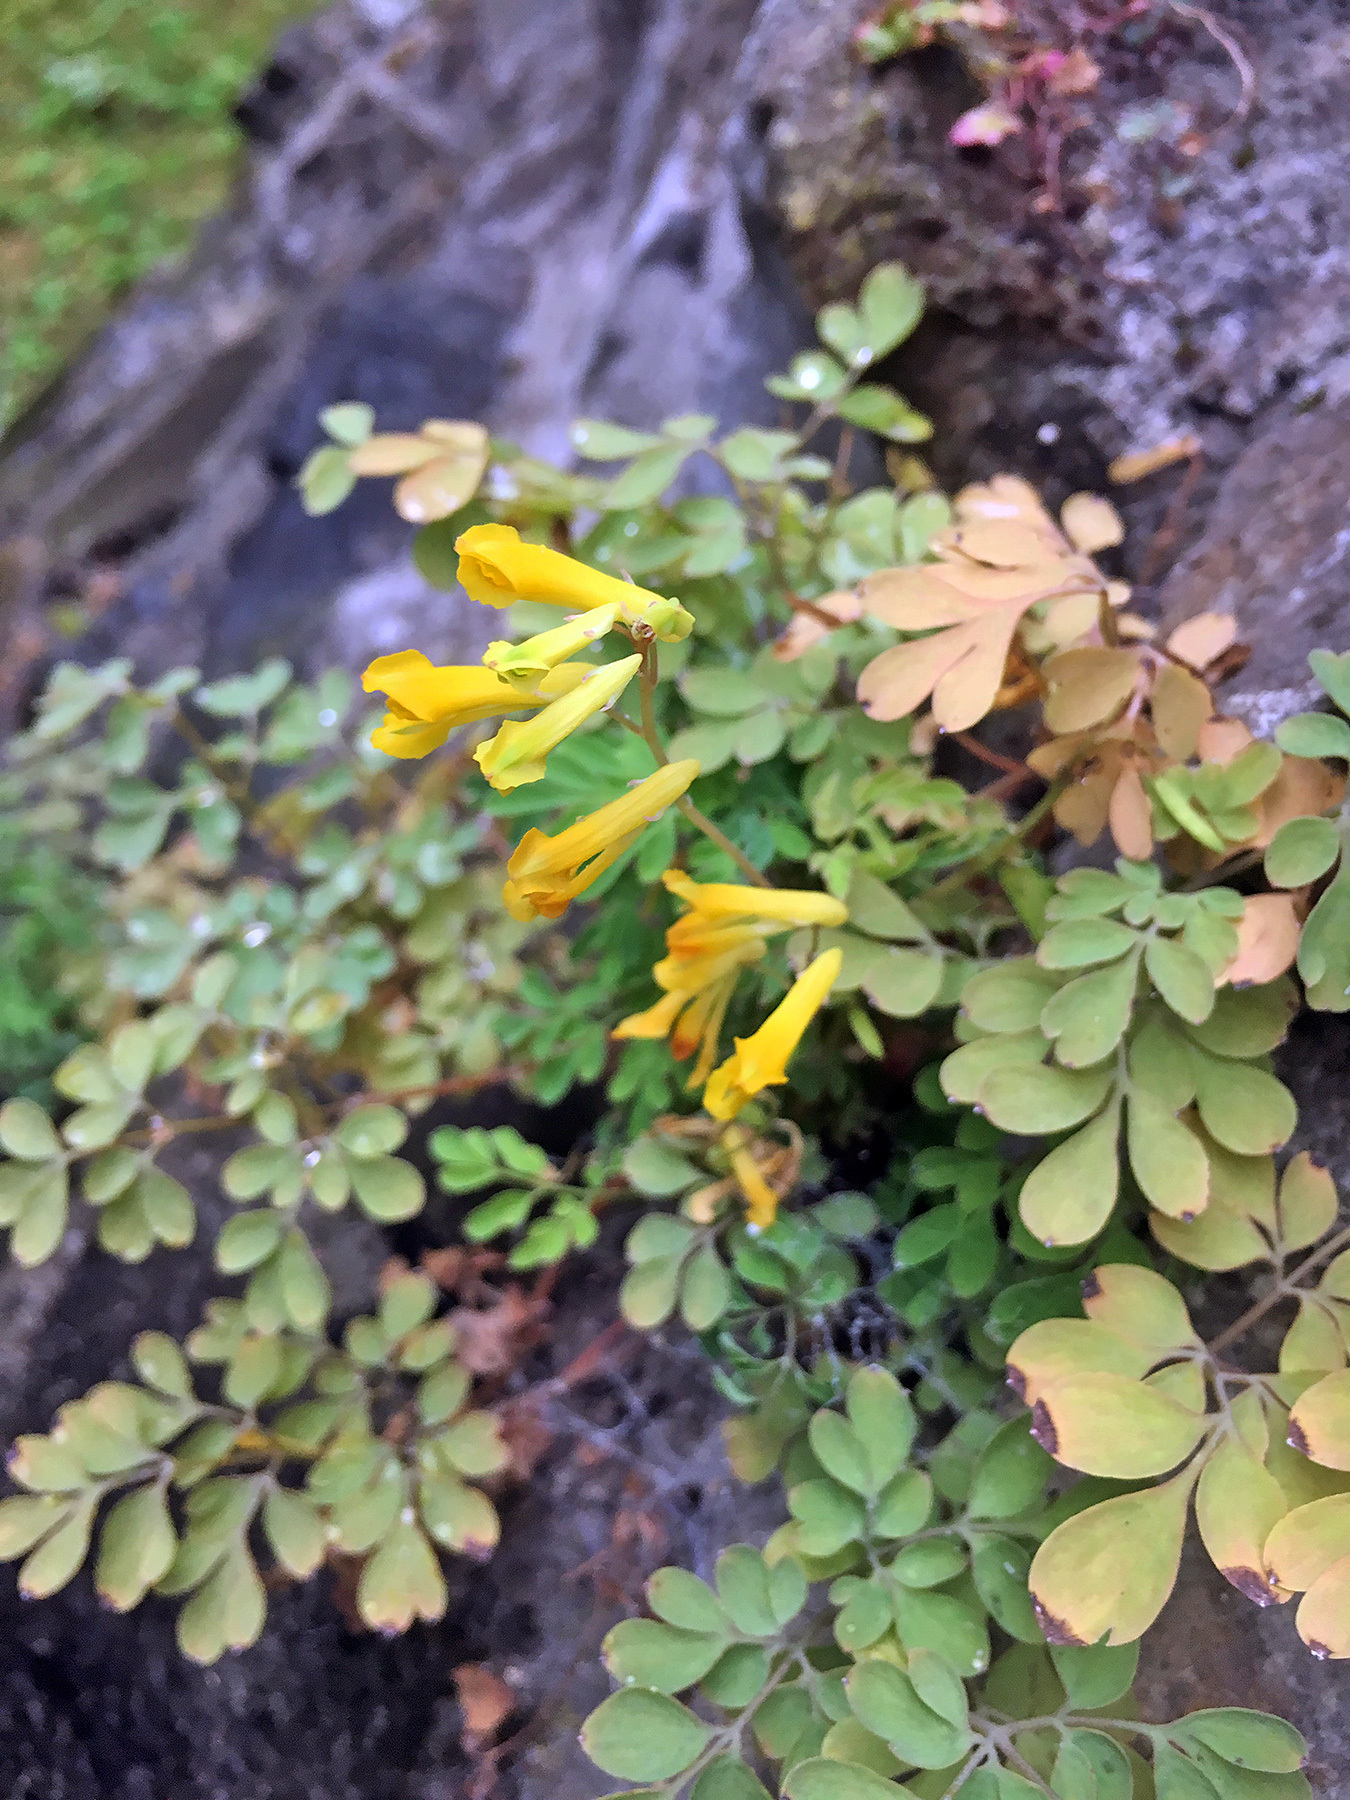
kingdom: Plantae
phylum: Tracheophyta
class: Magnoliopsida
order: Ranunculales
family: Papaveraceae
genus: Pseudofumaria
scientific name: Pseudofumaria lutea
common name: Yellow corydalis
